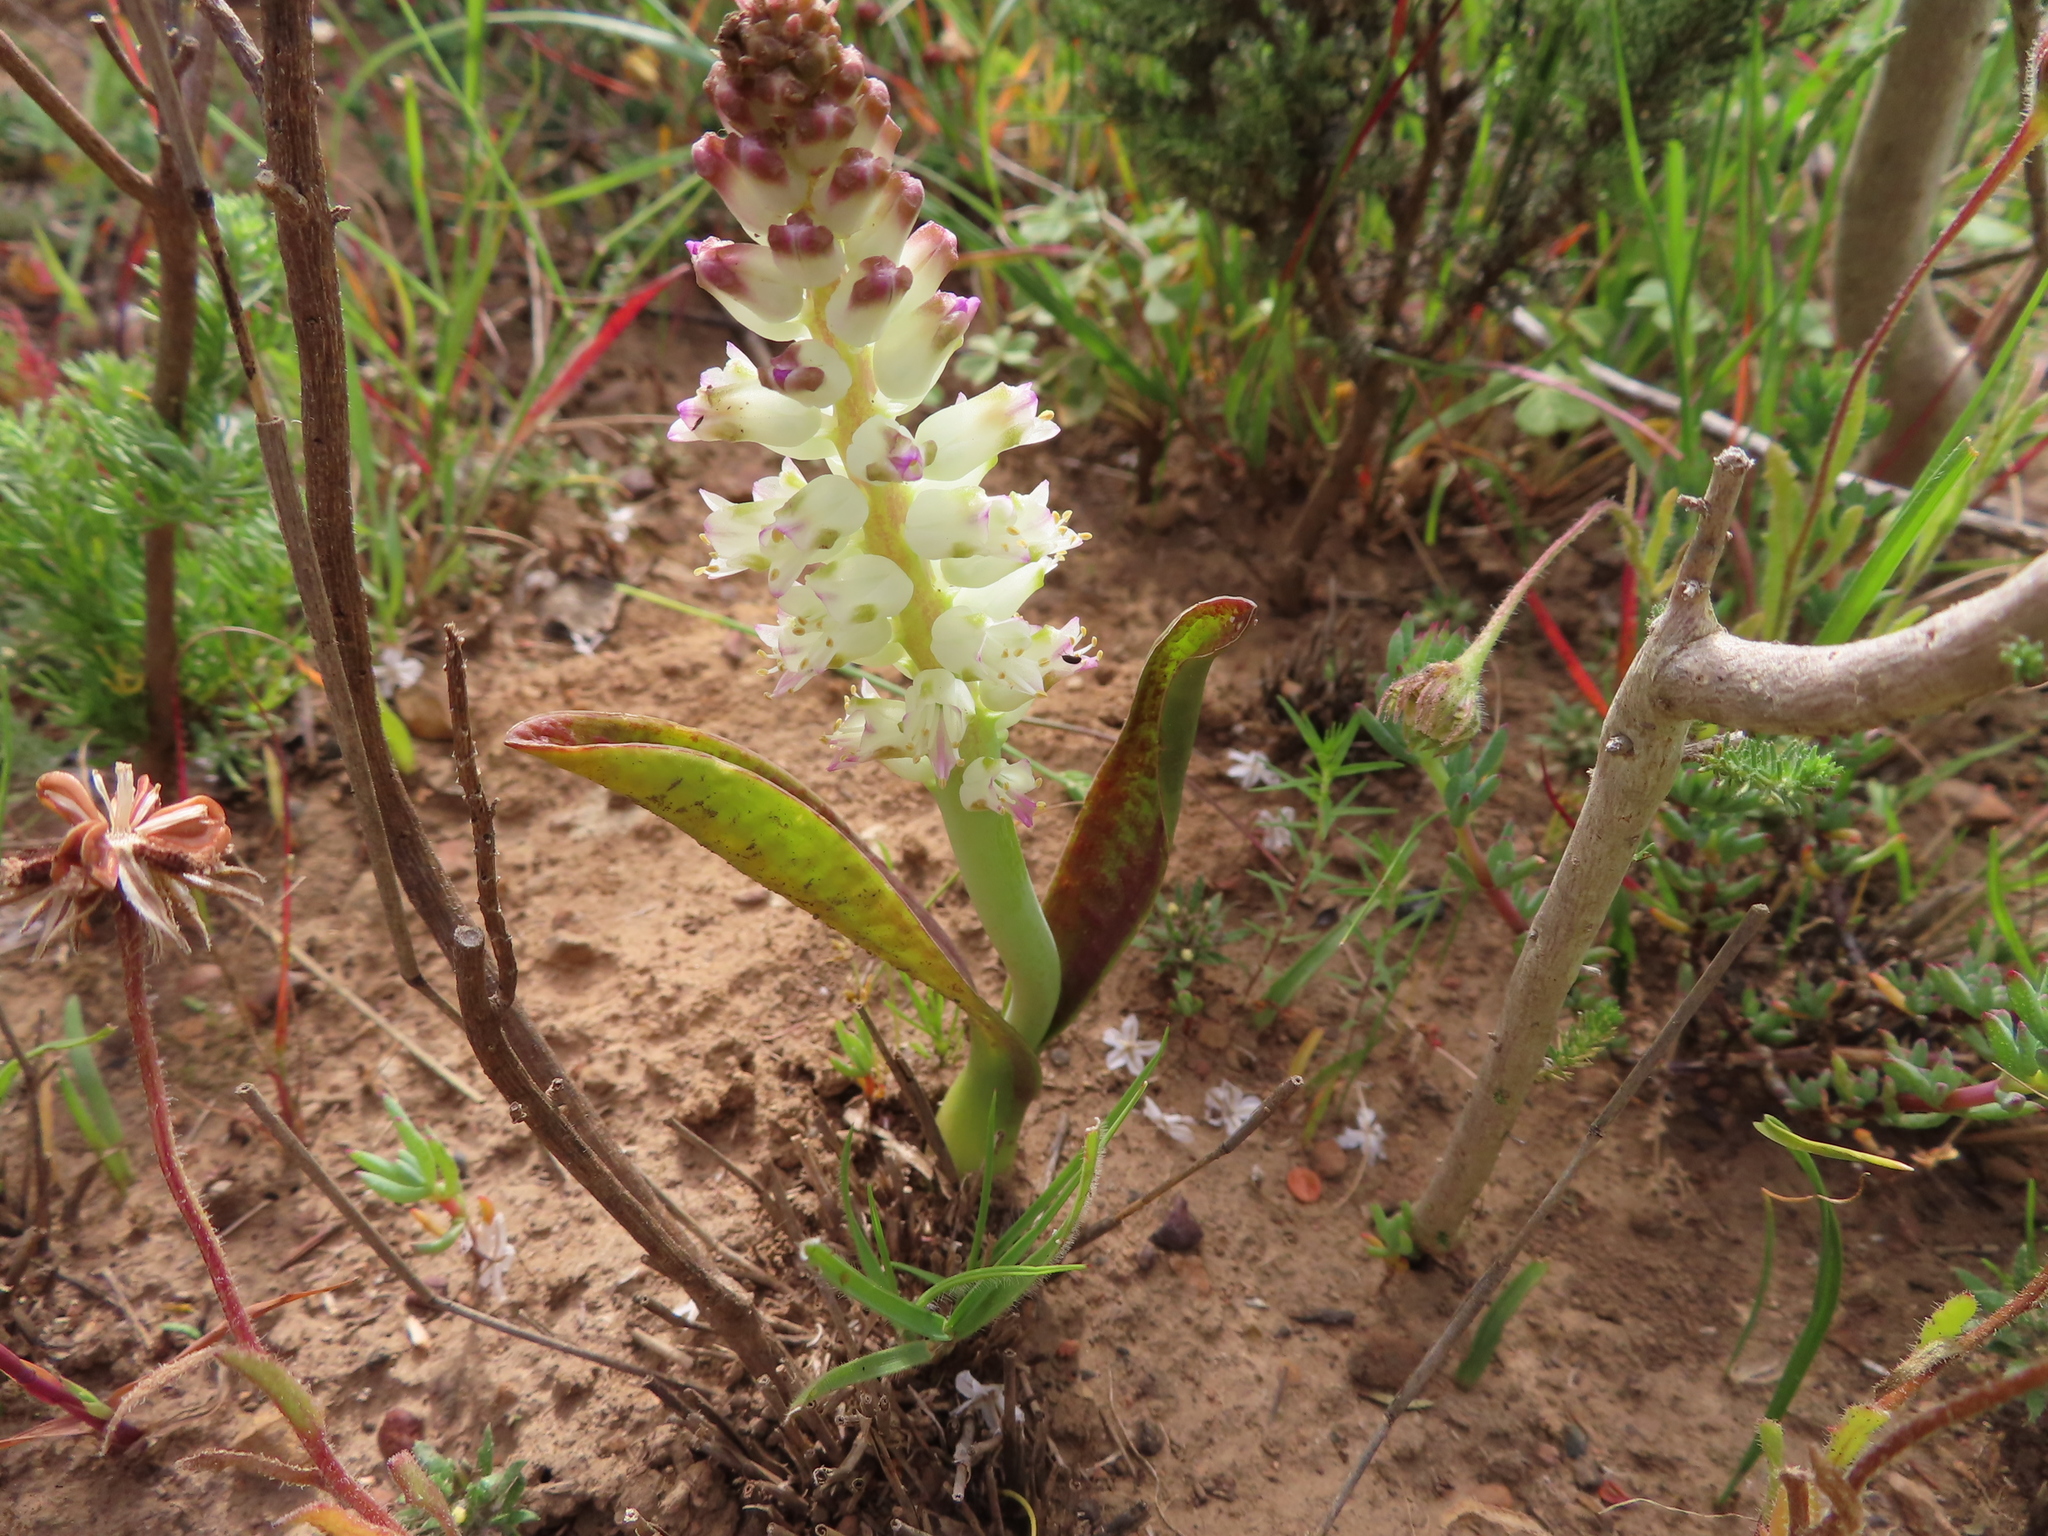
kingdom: Plantae
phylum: Tracheophyta
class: Liliopsida
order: Asparagales
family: Asparagaceae
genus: Lachenalia
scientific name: Lachenalia pallida
